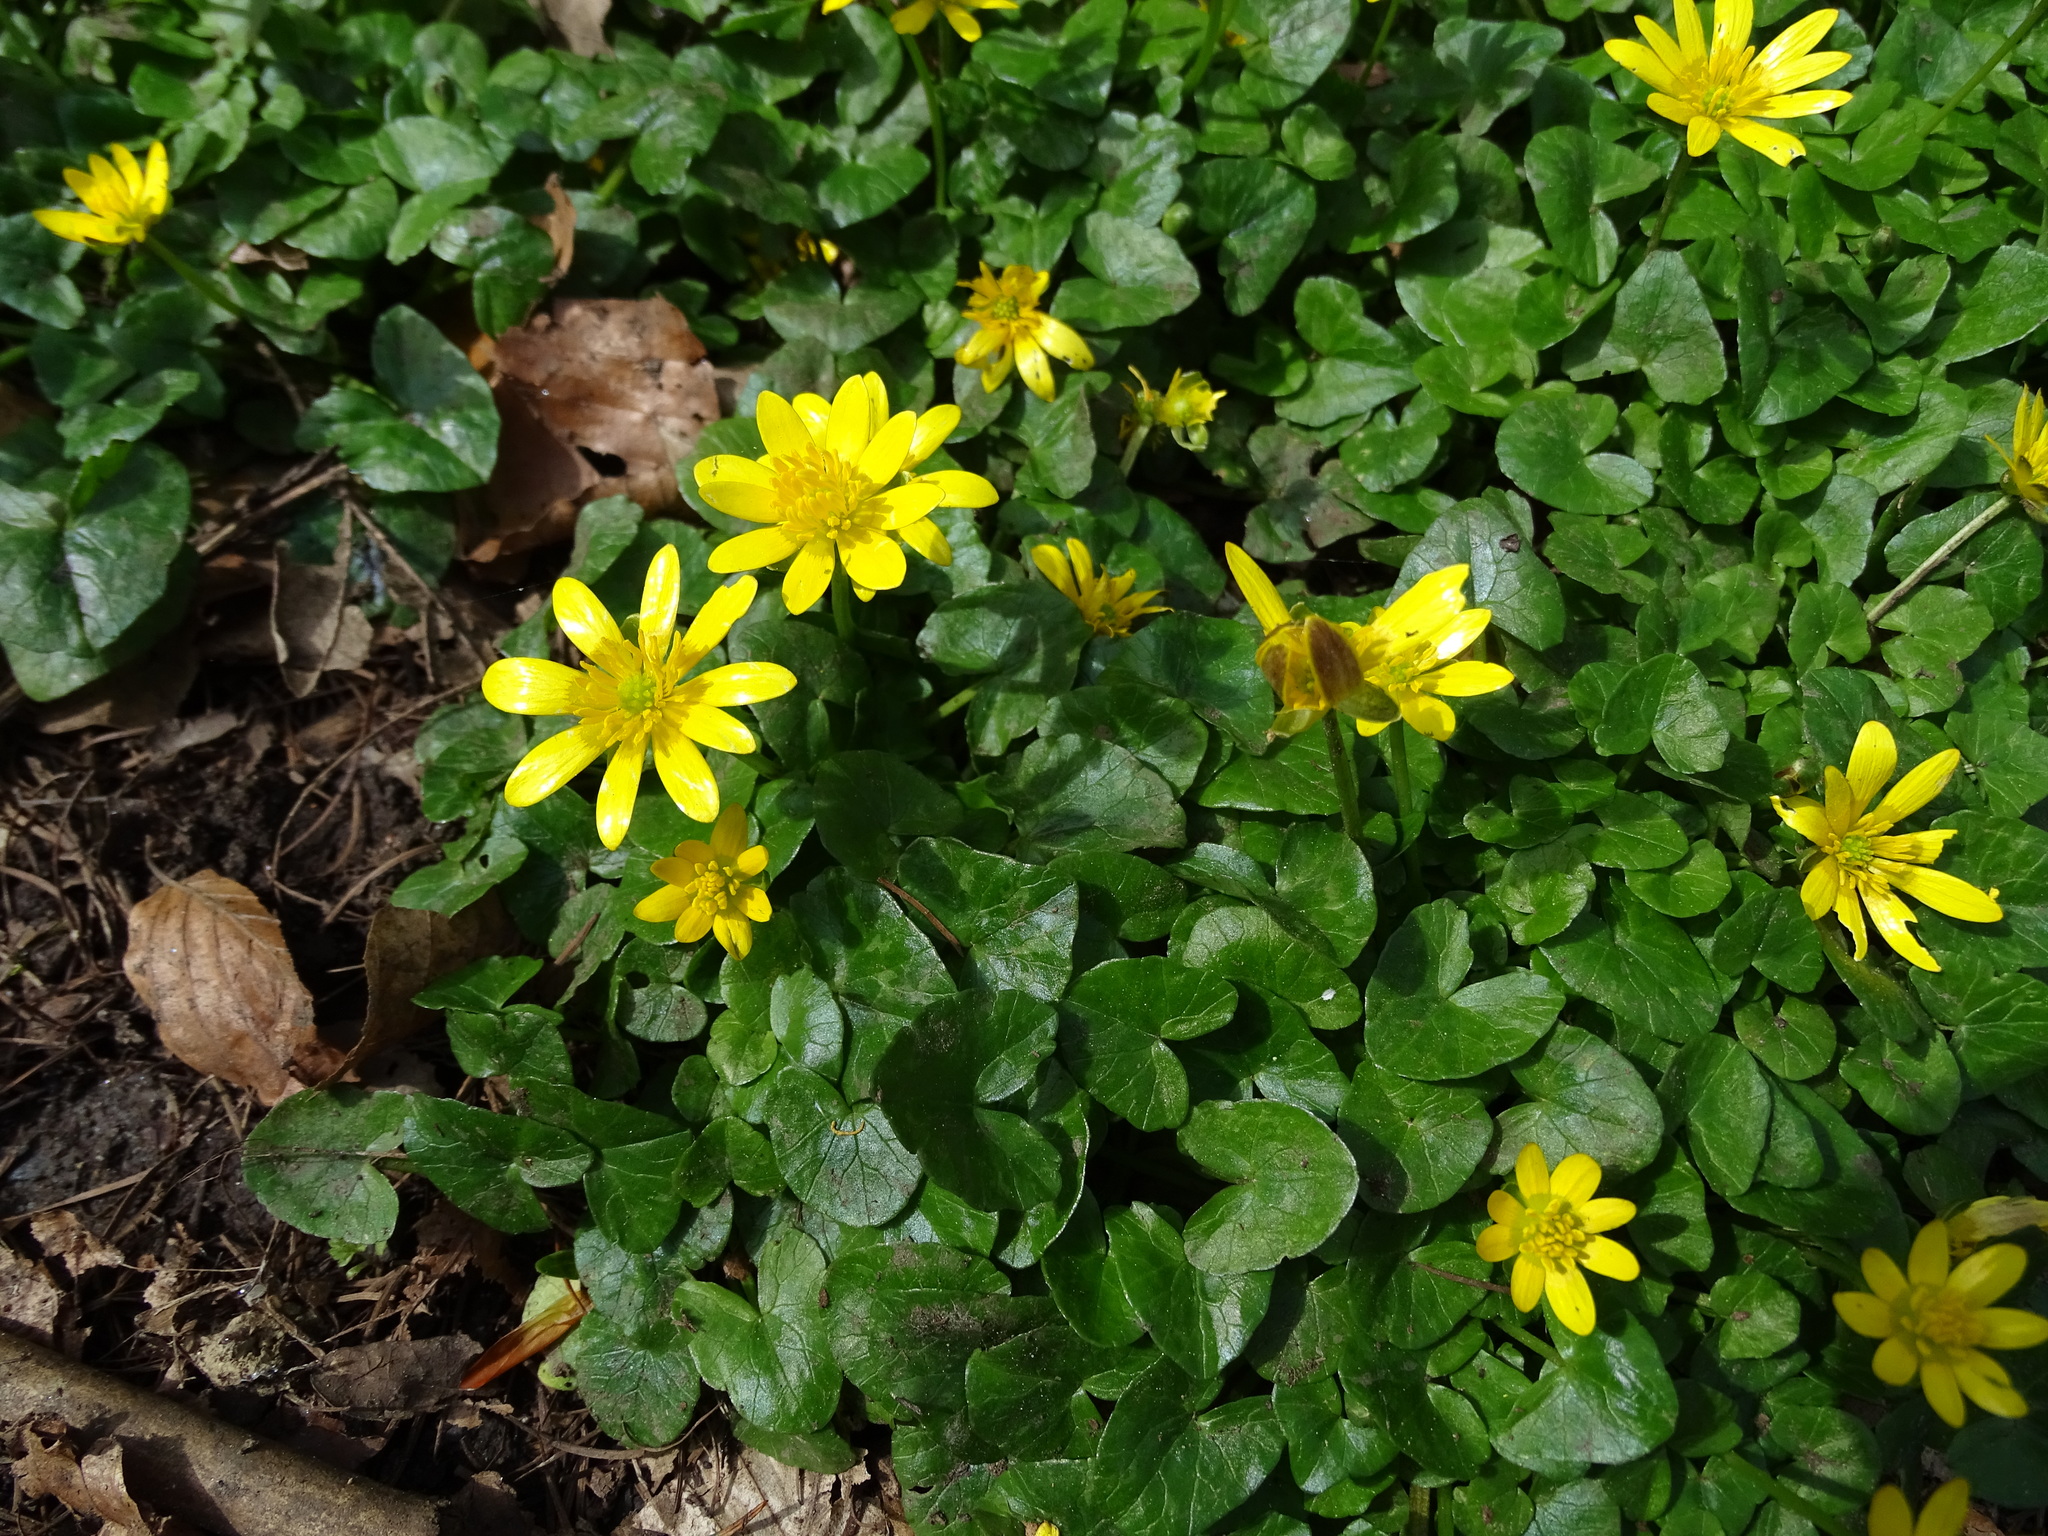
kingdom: Plantae
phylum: Tracheophyta
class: Magnoliopsida
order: Ranunculales
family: Ranunculaceae
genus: Ficaria
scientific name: Ficaria verna
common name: Lesser celandine
